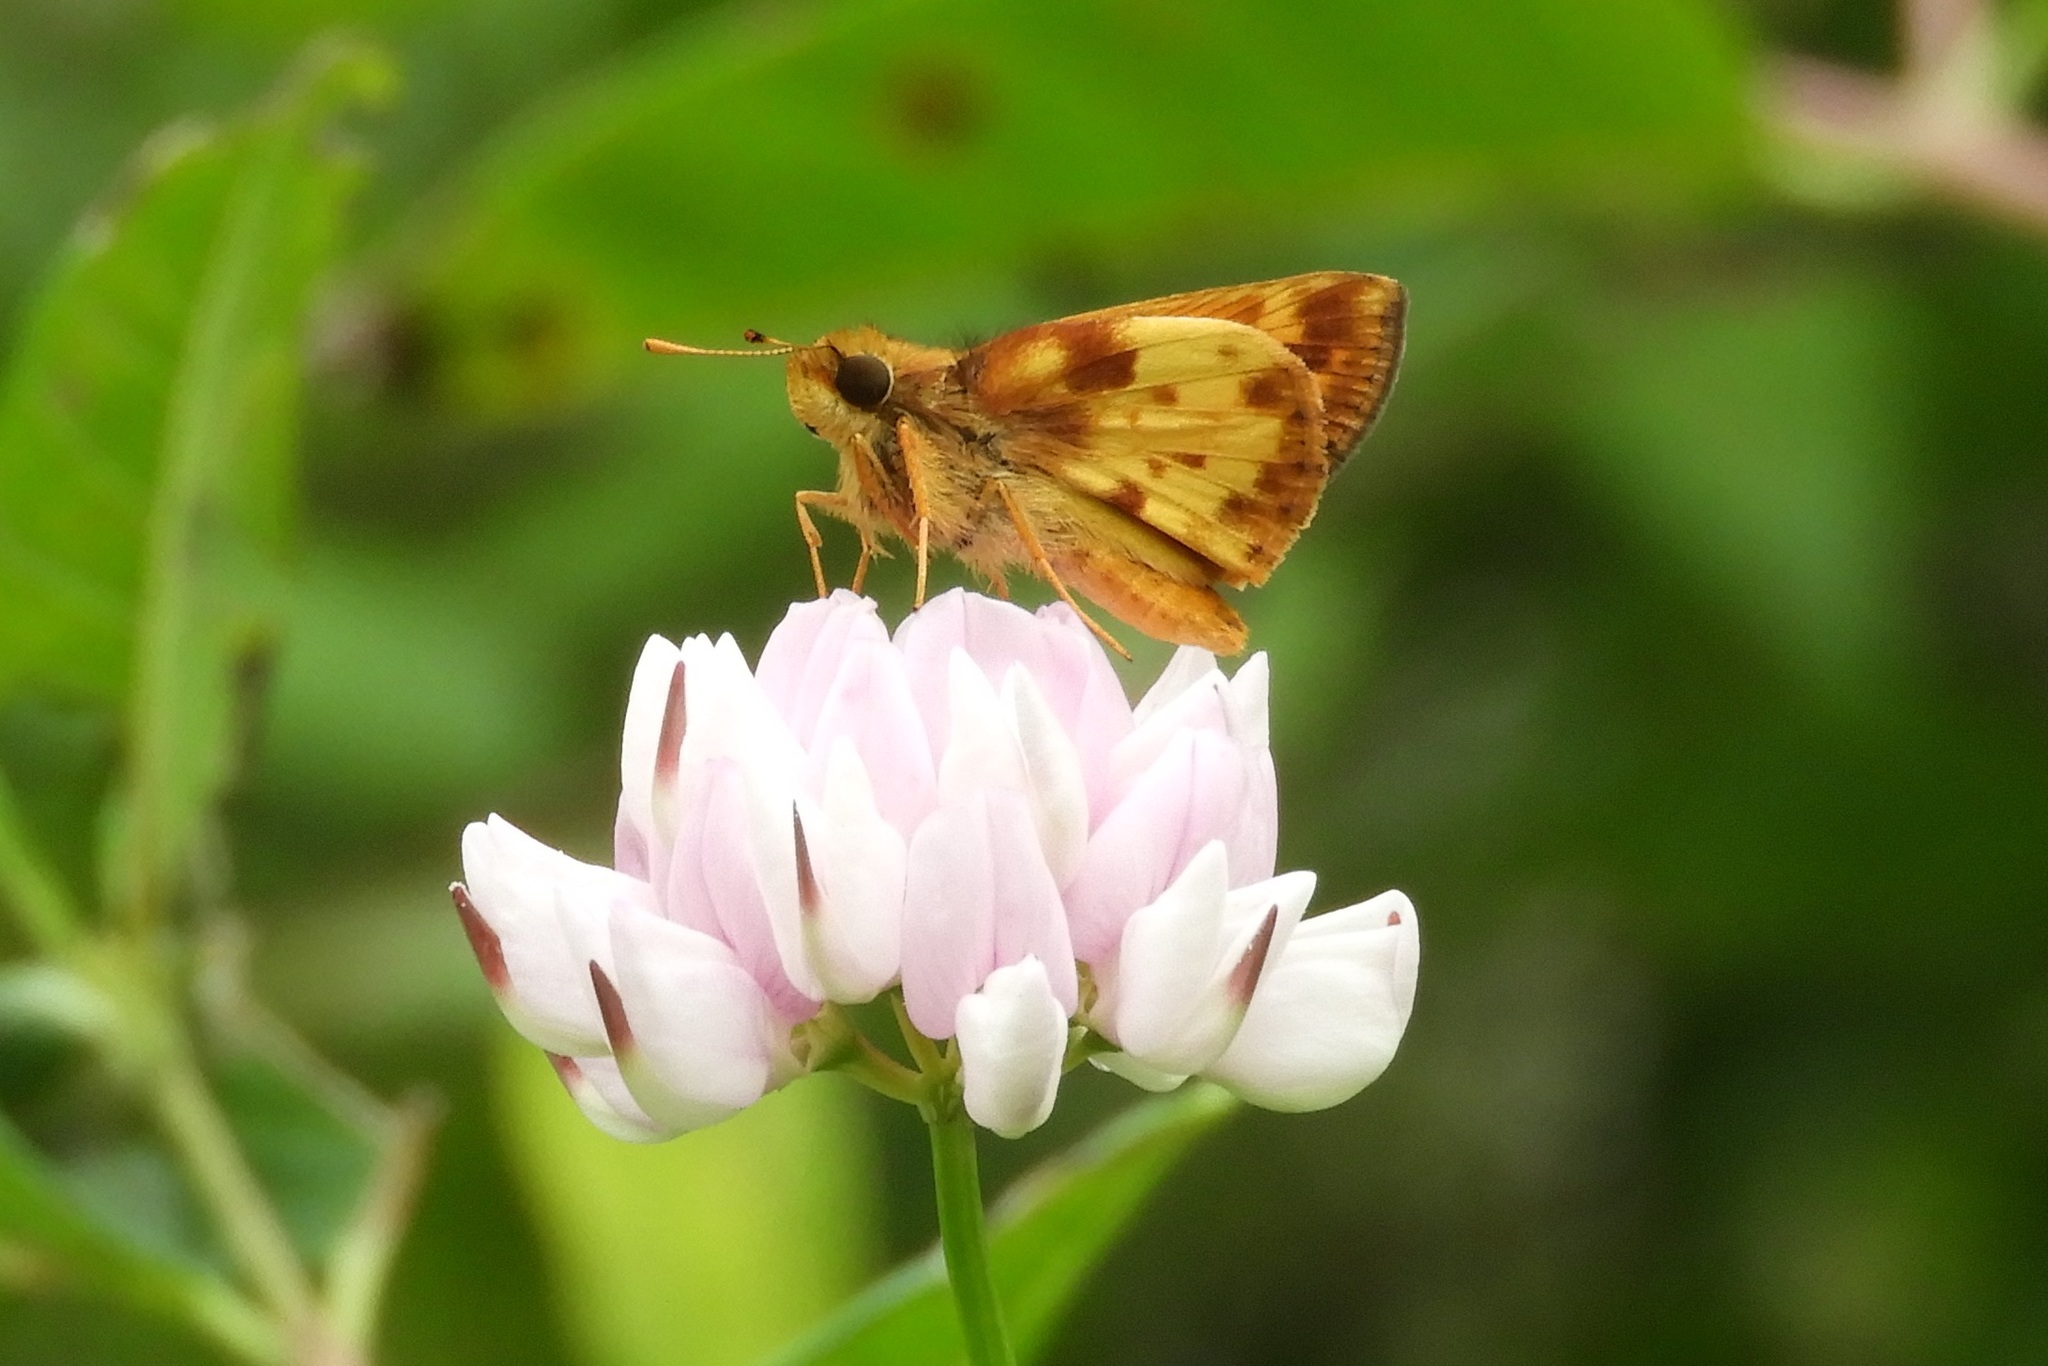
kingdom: Animalia
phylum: Arthropoda
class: Insecta
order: Lepidoptera
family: Hesperiidae
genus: Lon
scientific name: Lon zabulon
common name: Zabulon skipper
